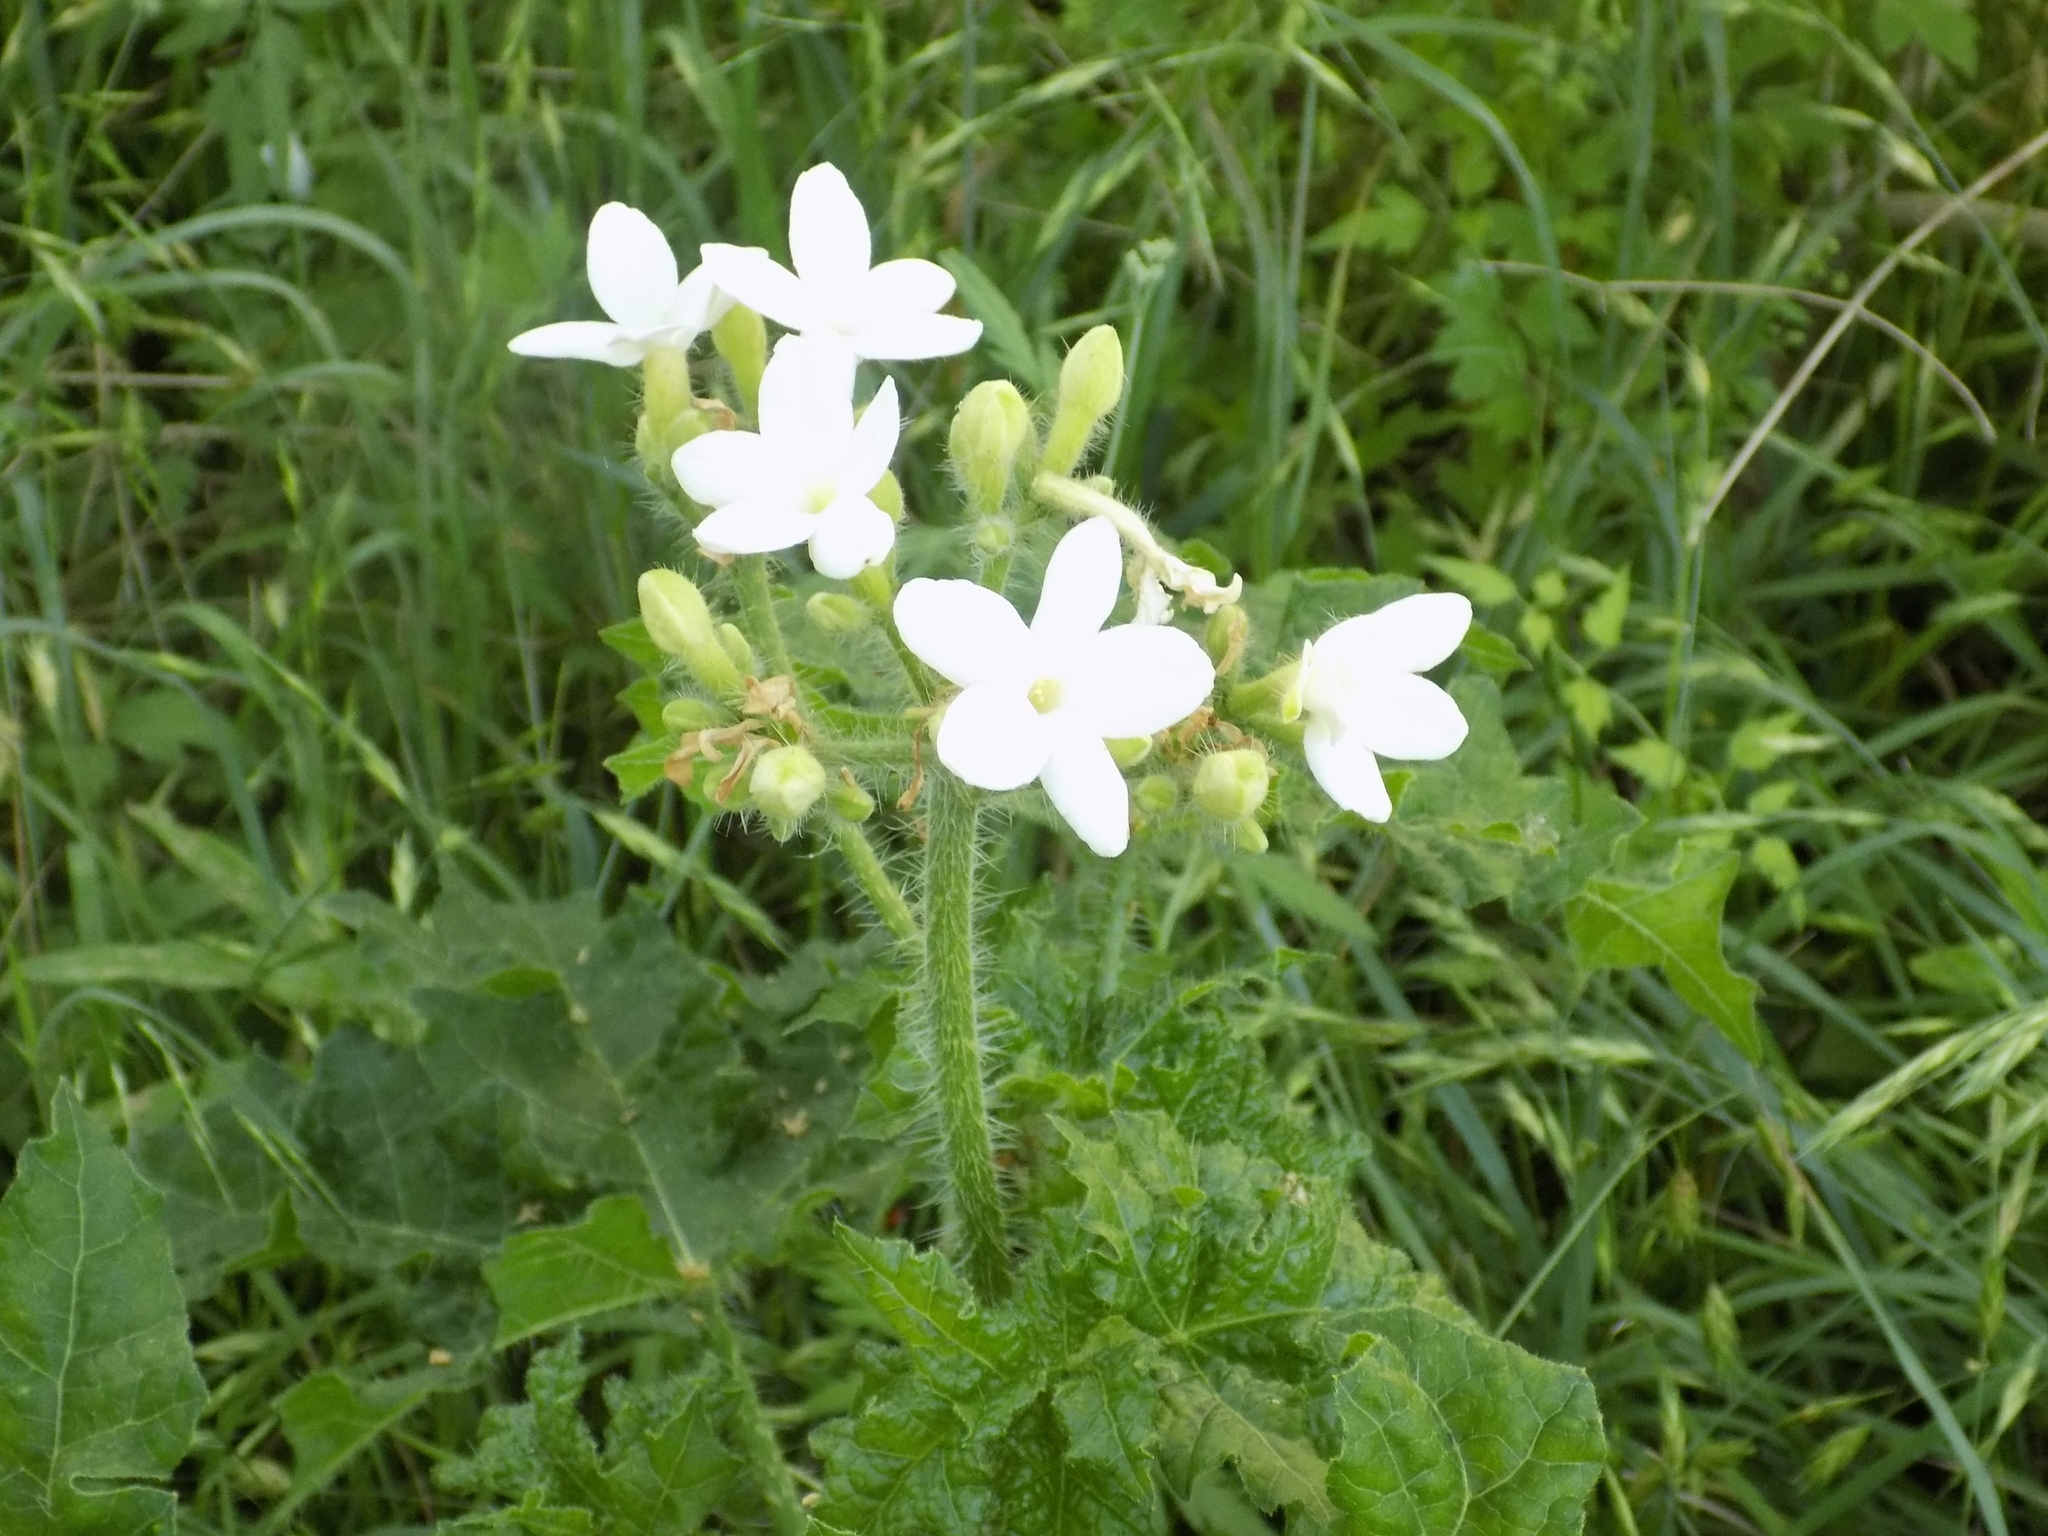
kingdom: Plantae
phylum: Tracheophyta
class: Magnoliopsida
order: Malpighiales
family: Euphorbiaceae
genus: Cnidoscolus
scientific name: Cnidoscolus texanus
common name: Texas bull-nettle
